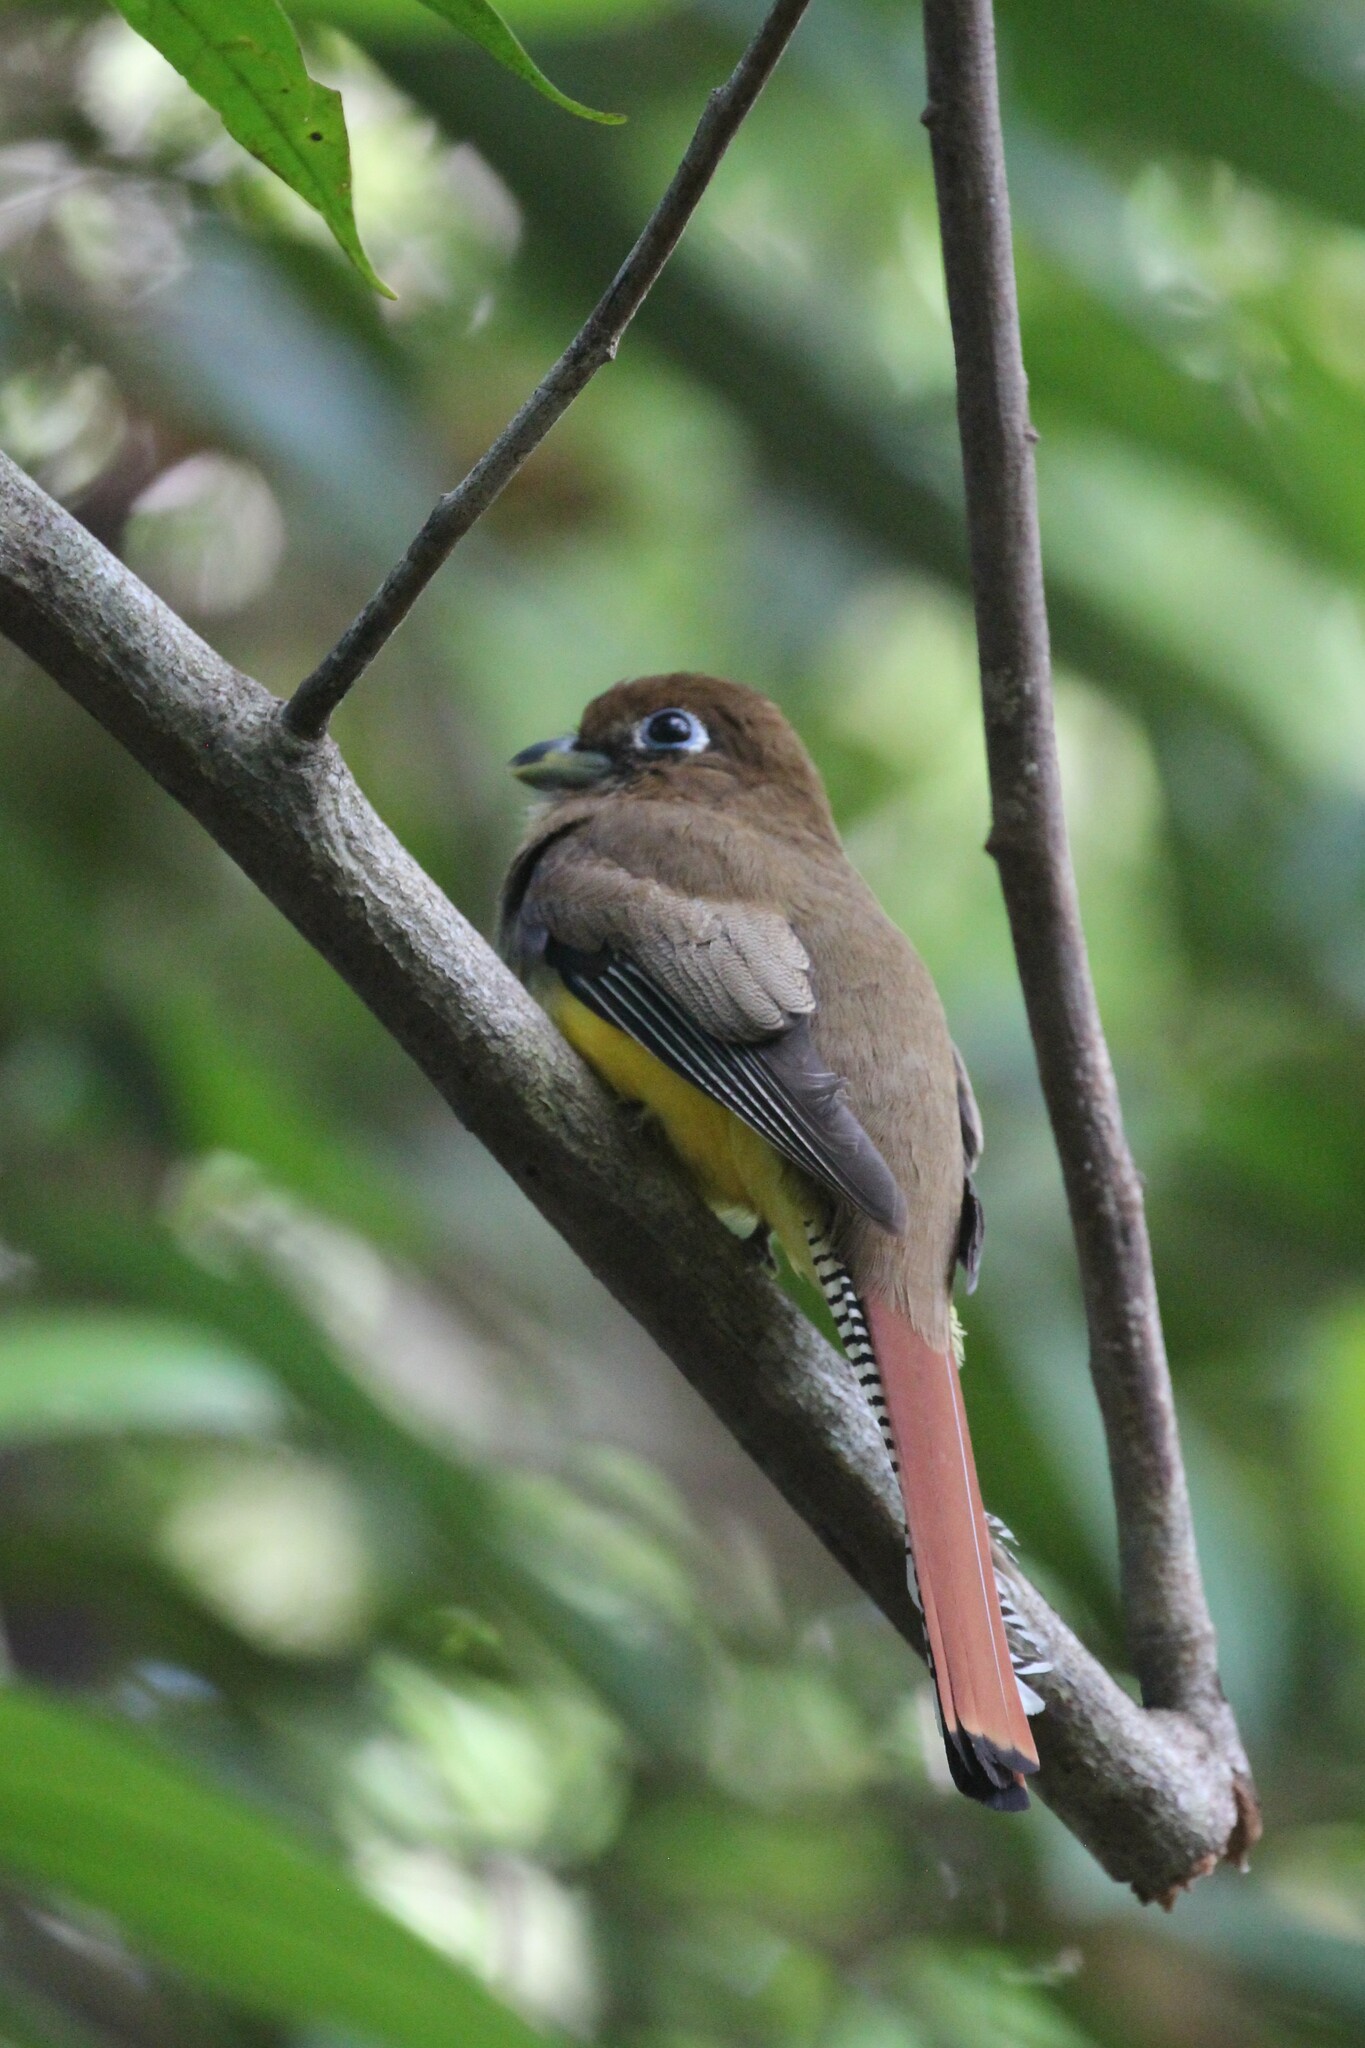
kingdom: Animalia
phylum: Chordata
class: Aves
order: Trogoniformes
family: Trogonidae
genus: Trogon
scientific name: Trogon rufus
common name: Black-throated trogon
